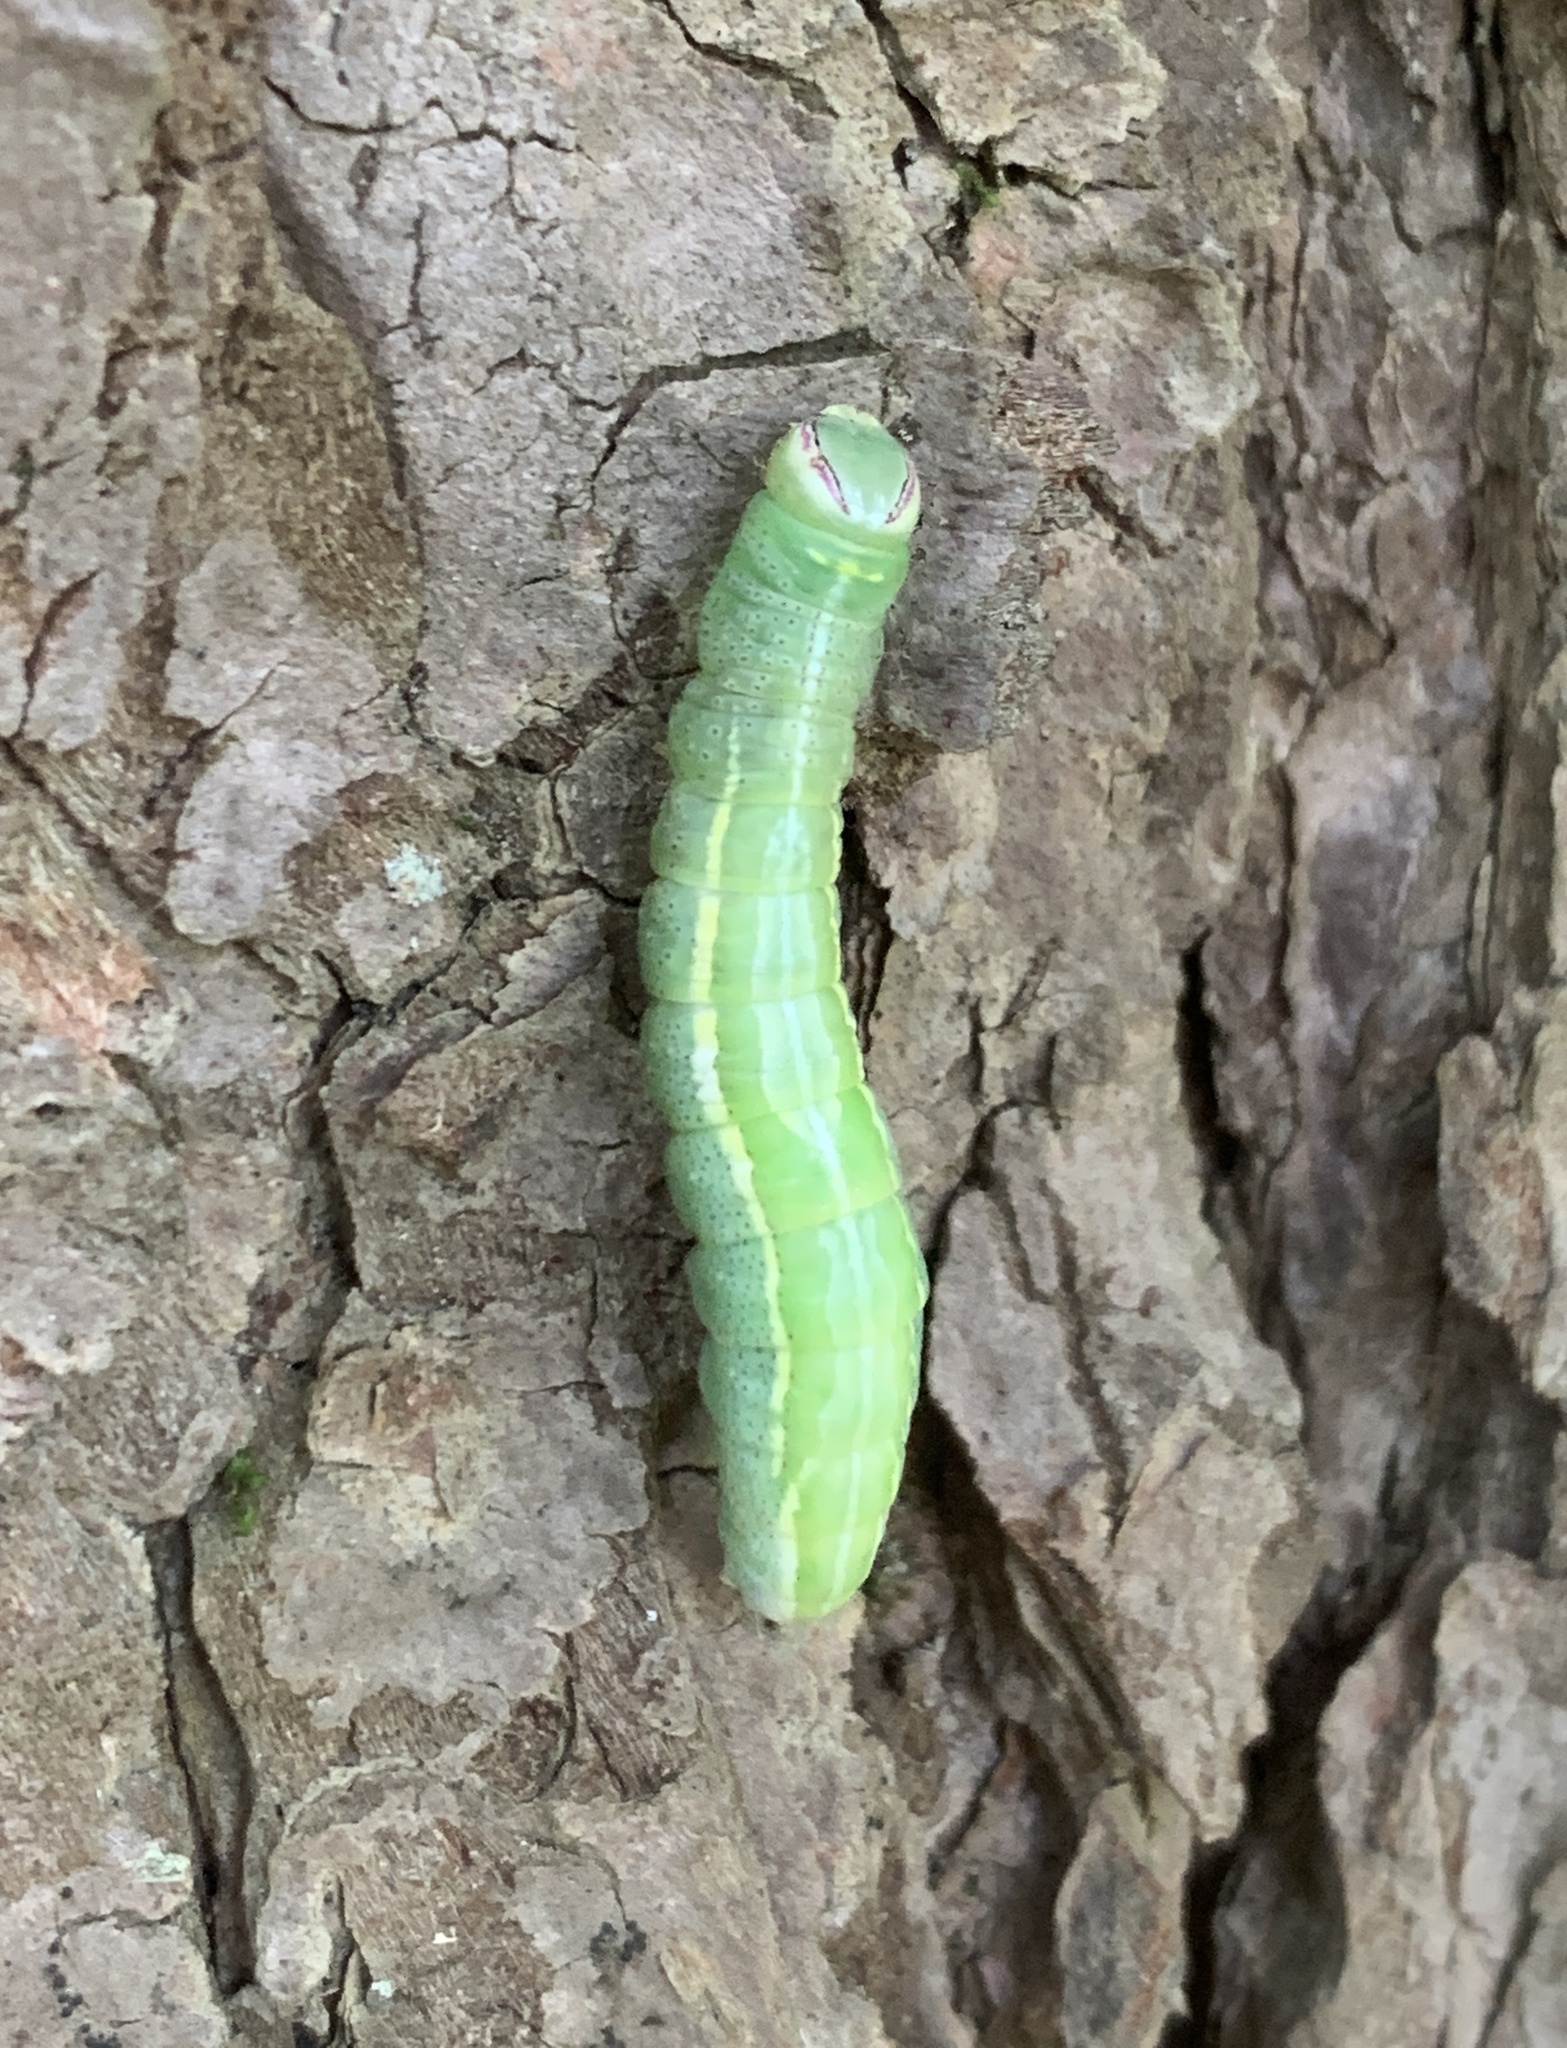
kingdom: Animalia
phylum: Arthropoda
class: Insecta
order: Lepidoptera
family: Notodontidae
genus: Disphragis
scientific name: Disphragis Cecrita guttivitta
